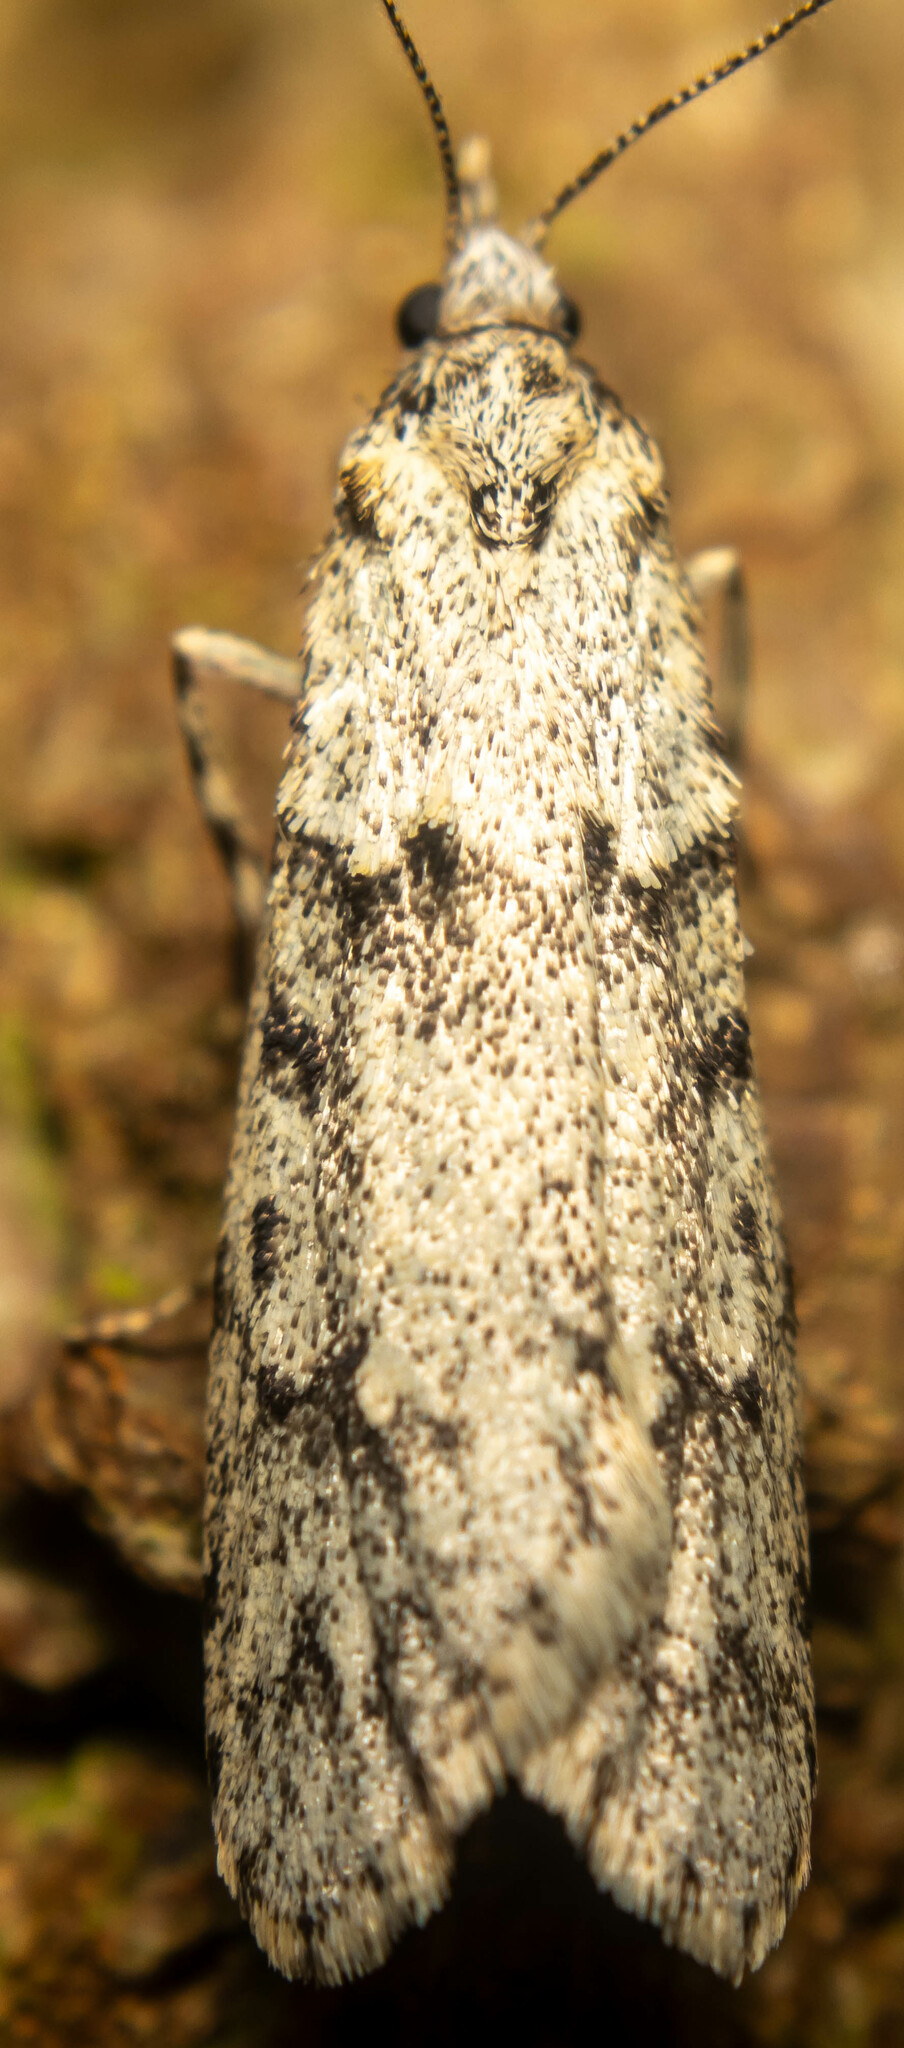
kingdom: Animalia
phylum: Arthropoda
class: Insecta
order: Lepidoptera
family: Lypusidae
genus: Diurnea
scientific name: Diurnea fagella
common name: March tubic
